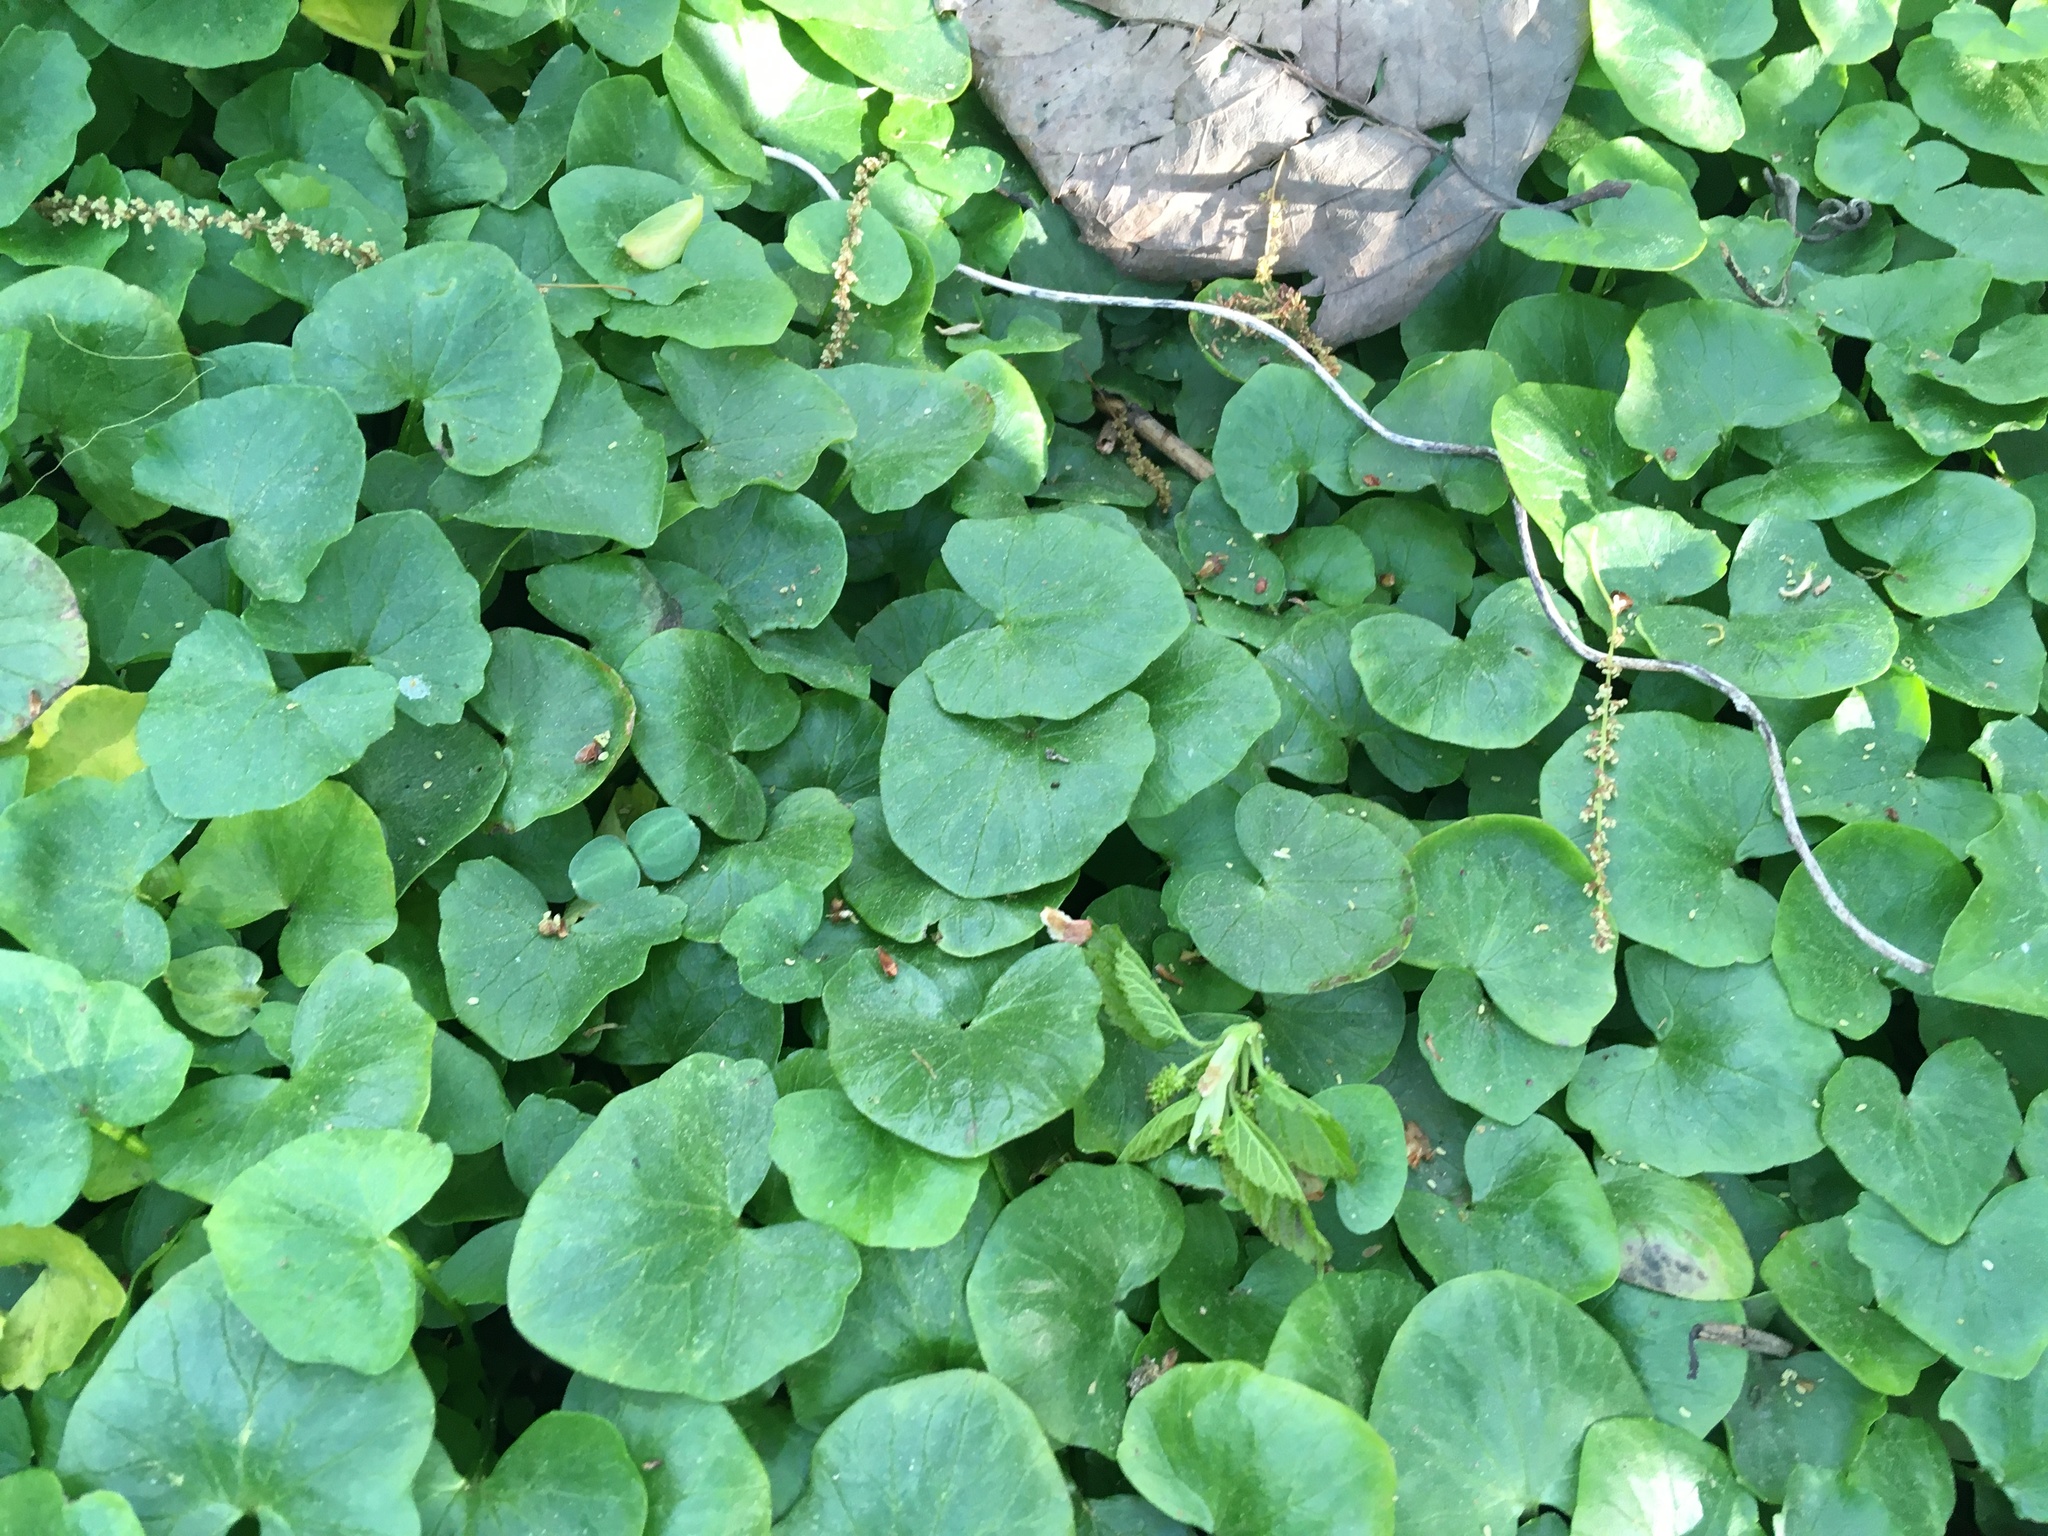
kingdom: Plantae
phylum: Tracheophyta
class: Magnoliopsida
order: Ranunculales
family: Ranunculaceae
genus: Ficaria
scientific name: Ficaria verna
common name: Lesser celandine
